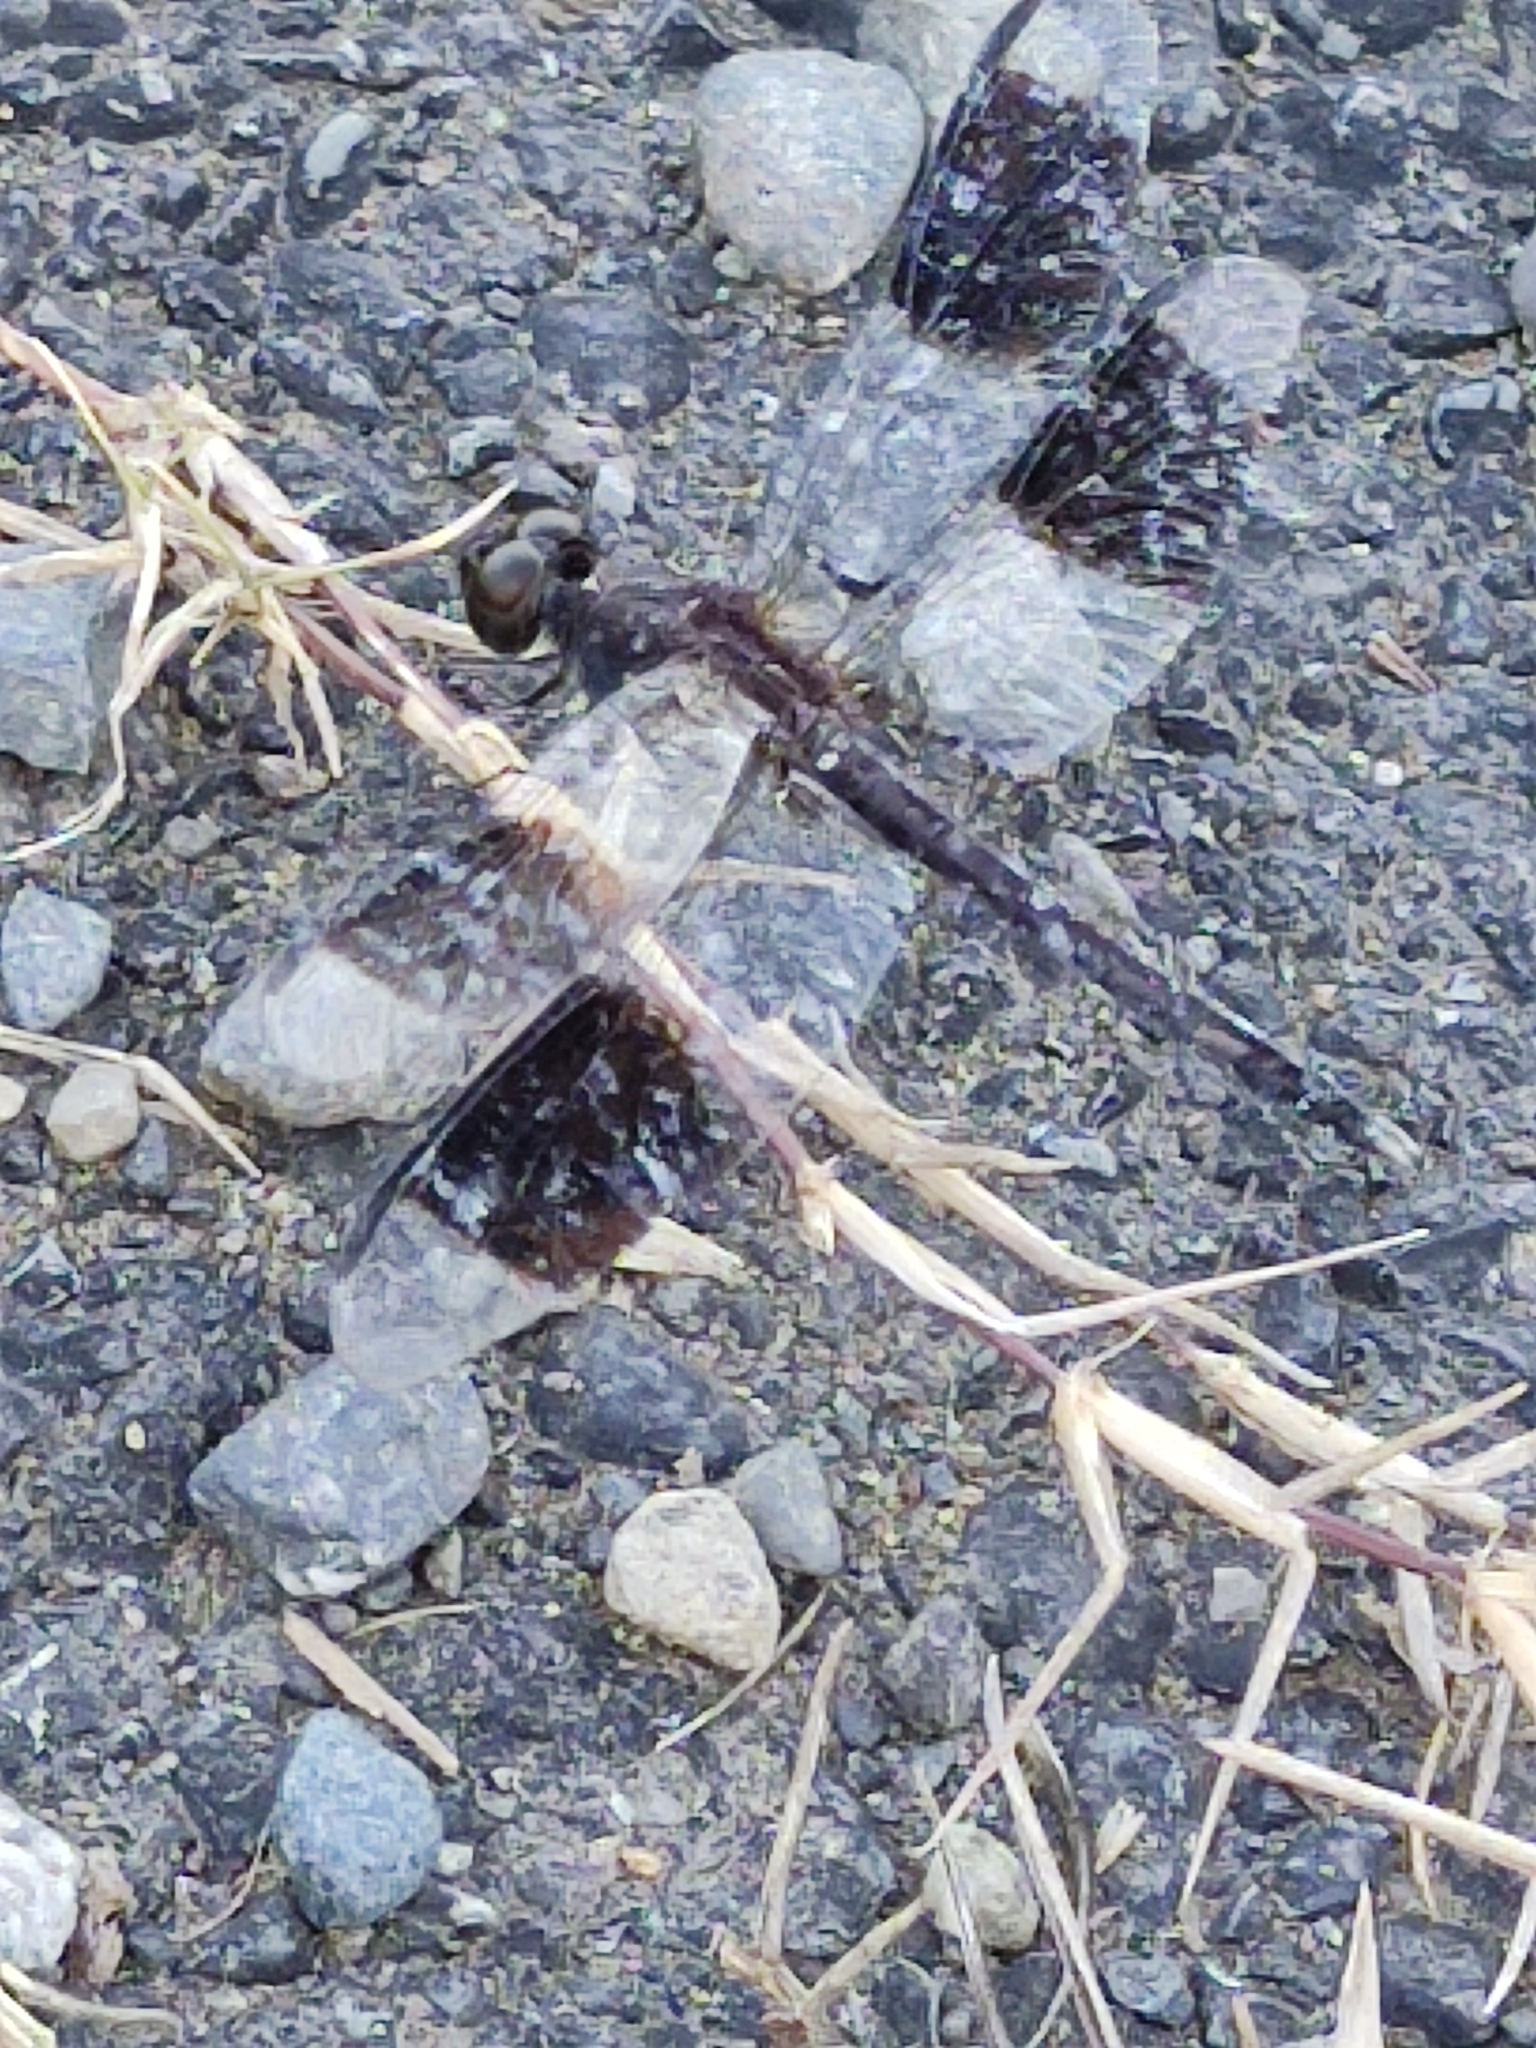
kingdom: Animalia
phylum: Arthropoda
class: Insecta
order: Odonata
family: Libellulidae
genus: Erythrodiplax
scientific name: Erythrodiplax umbrata
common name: Band-winged dragonlet
